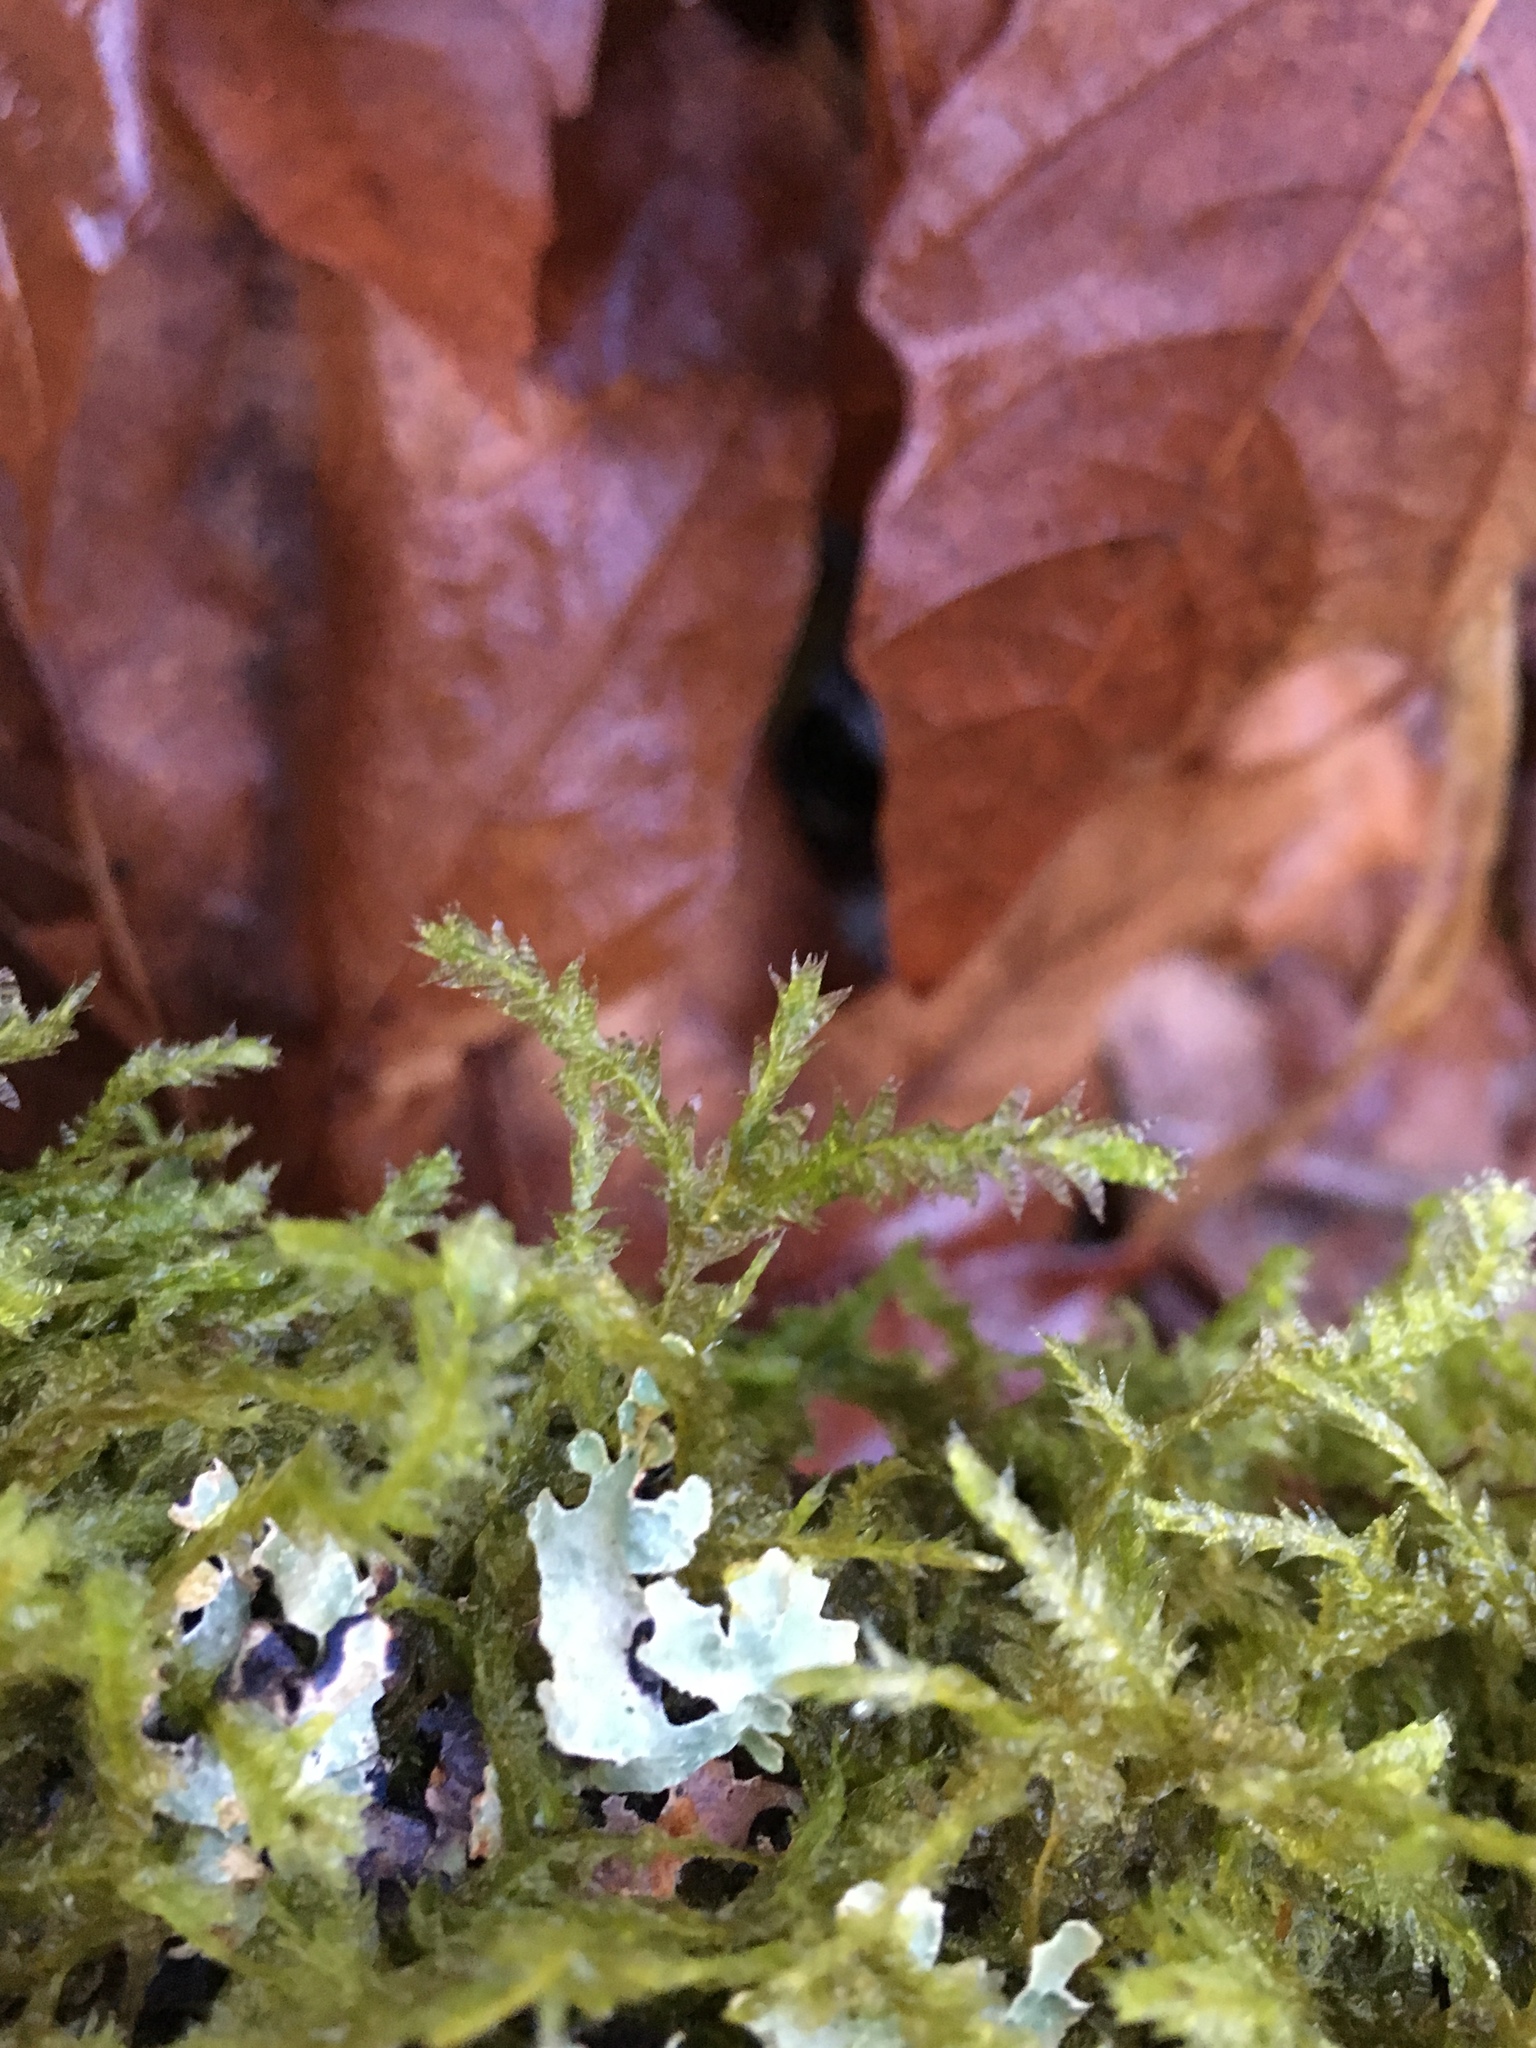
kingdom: Plantae
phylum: Bryophyta
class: Bryopsida
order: Hypnales
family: Neckeraceae
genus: Neckera
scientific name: Neckera douglasii
